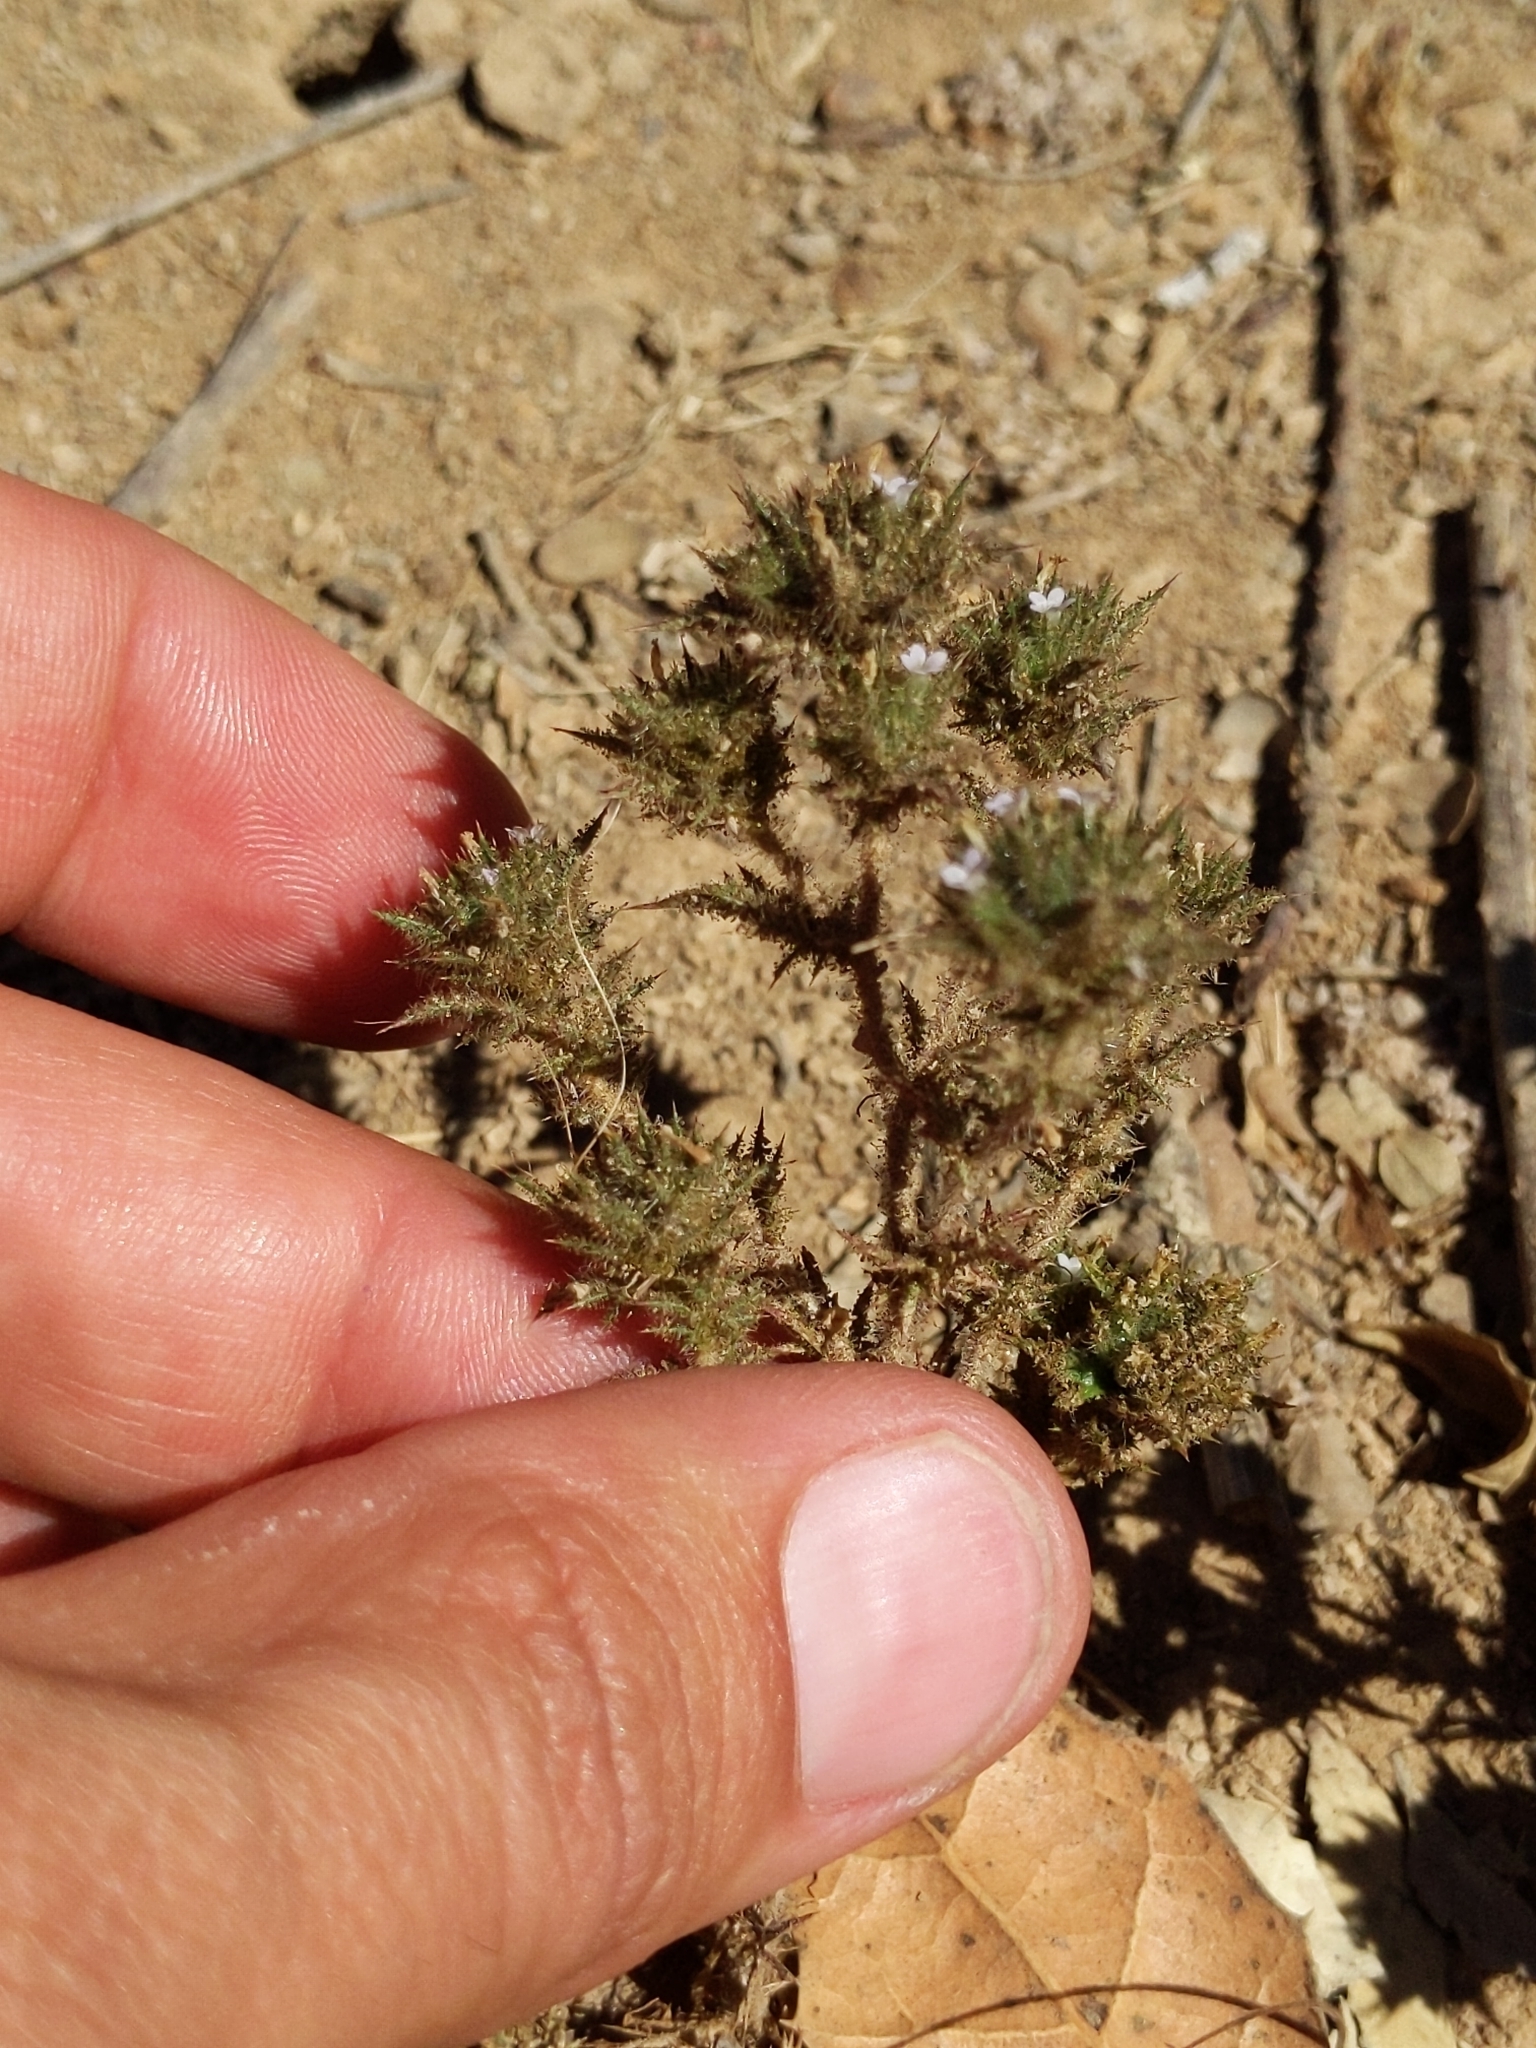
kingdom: Plantae
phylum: Tracheophyta
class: Magnoliopsida
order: Ericales
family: Polemoniaceae
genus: Navarretia
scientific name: Navarretia mellita
